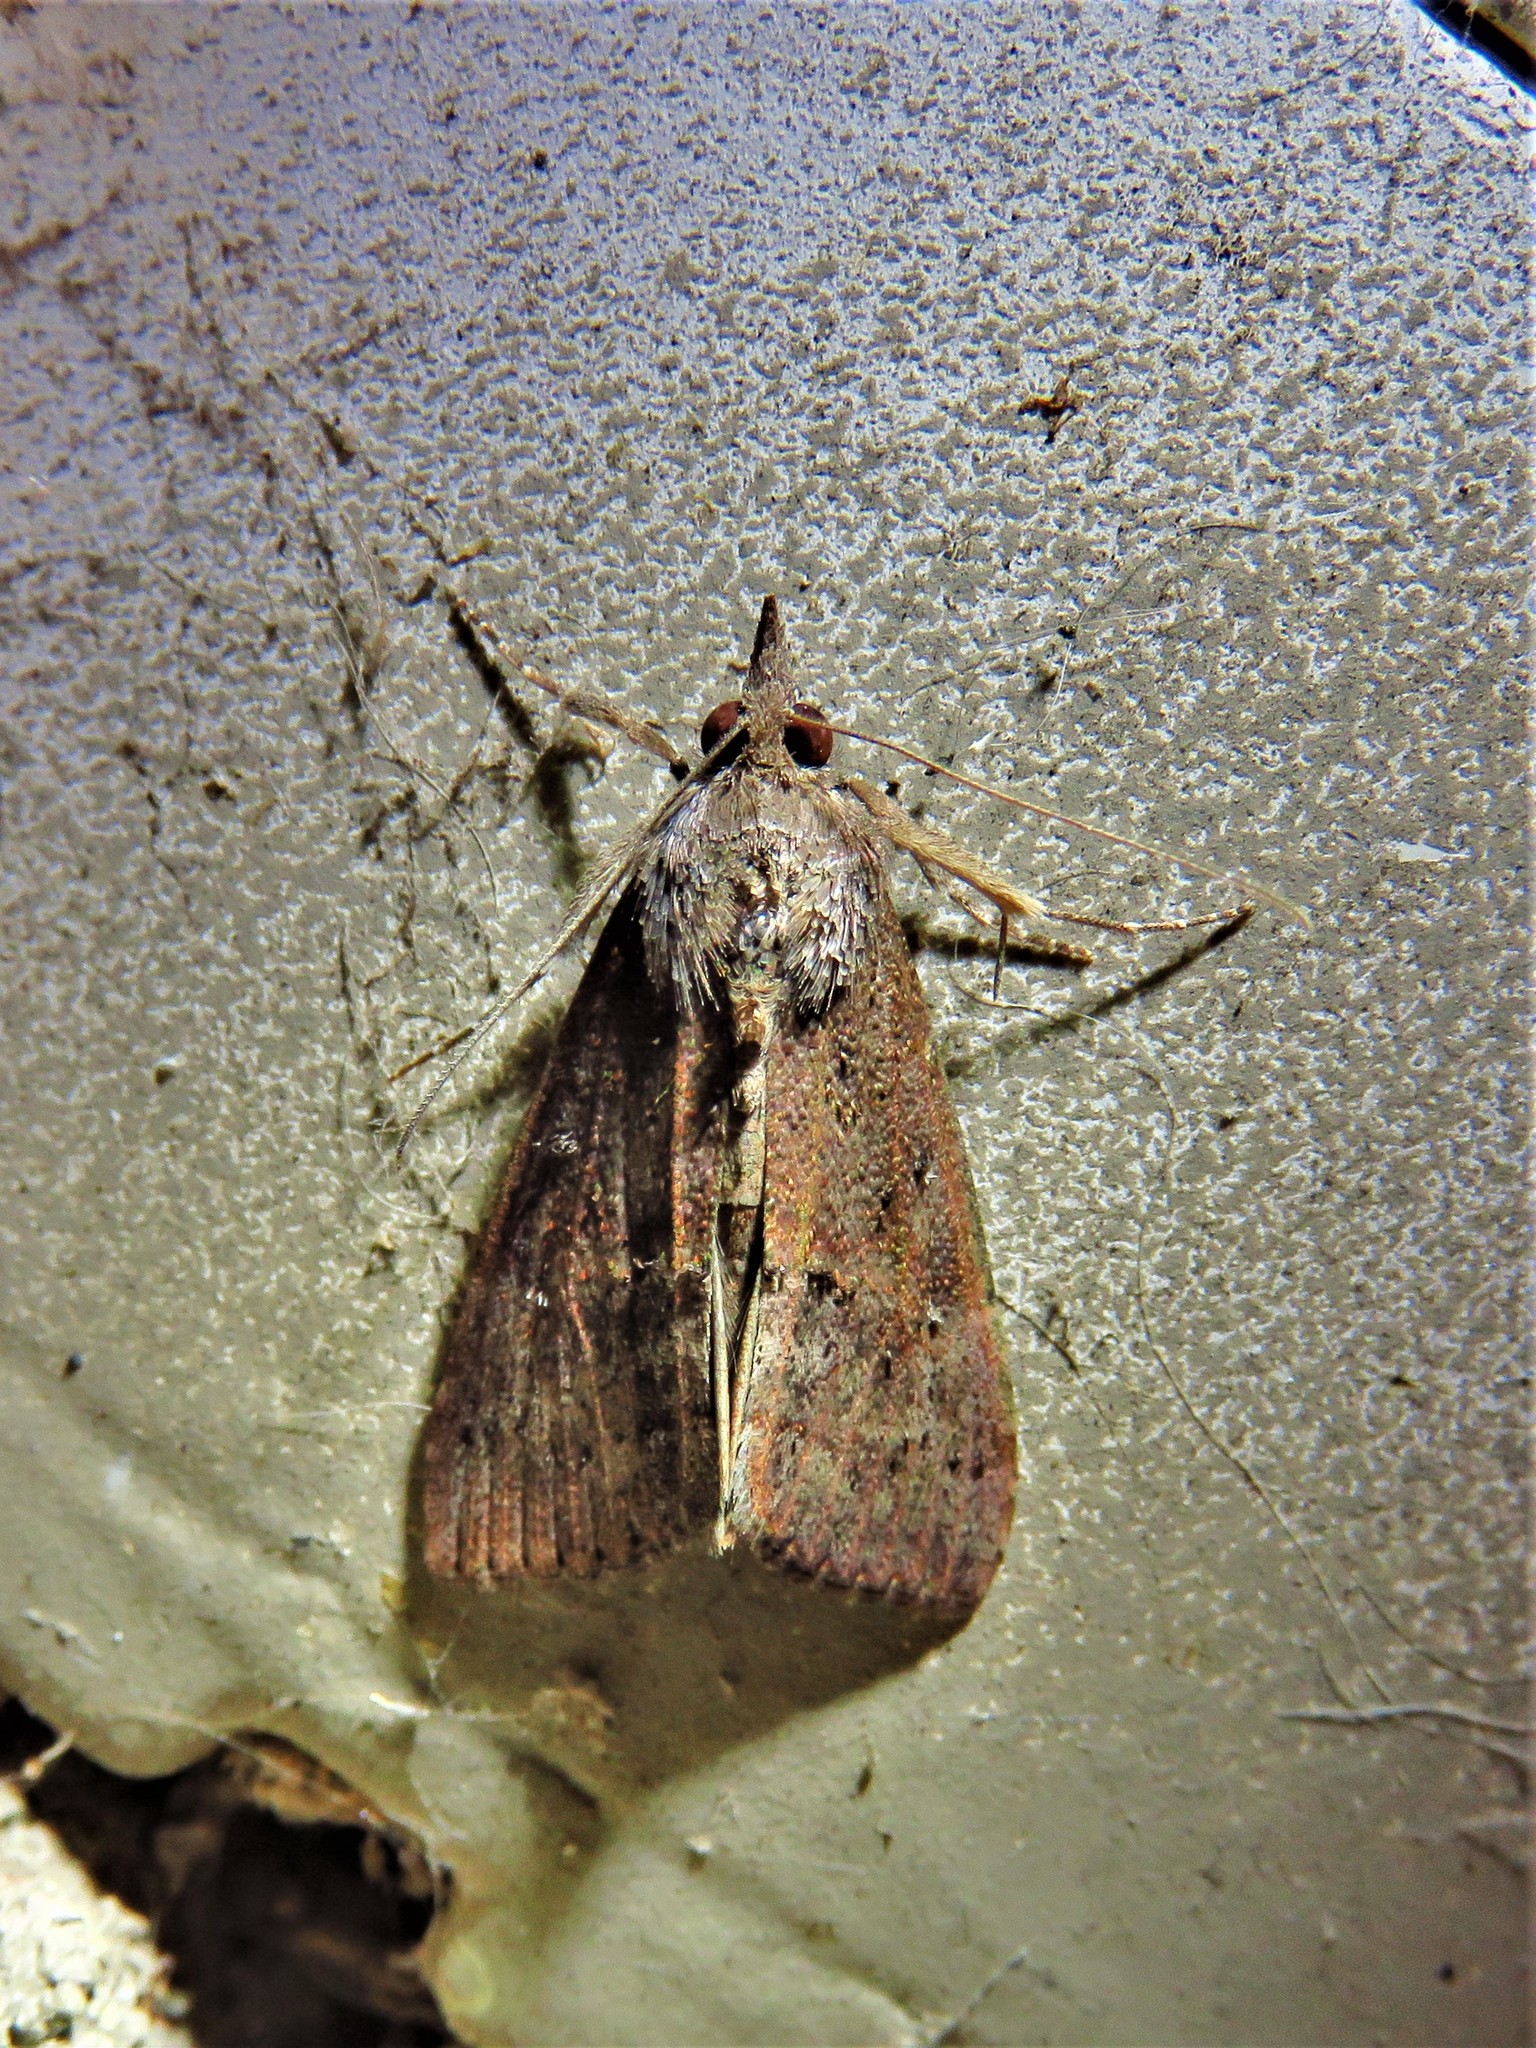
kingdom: Animalia
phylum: Arthropoda
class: Insecta
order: Lepidoptera
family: Erebidae
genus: Hypena
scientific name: Hypena scabra
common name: Green cloverworm
